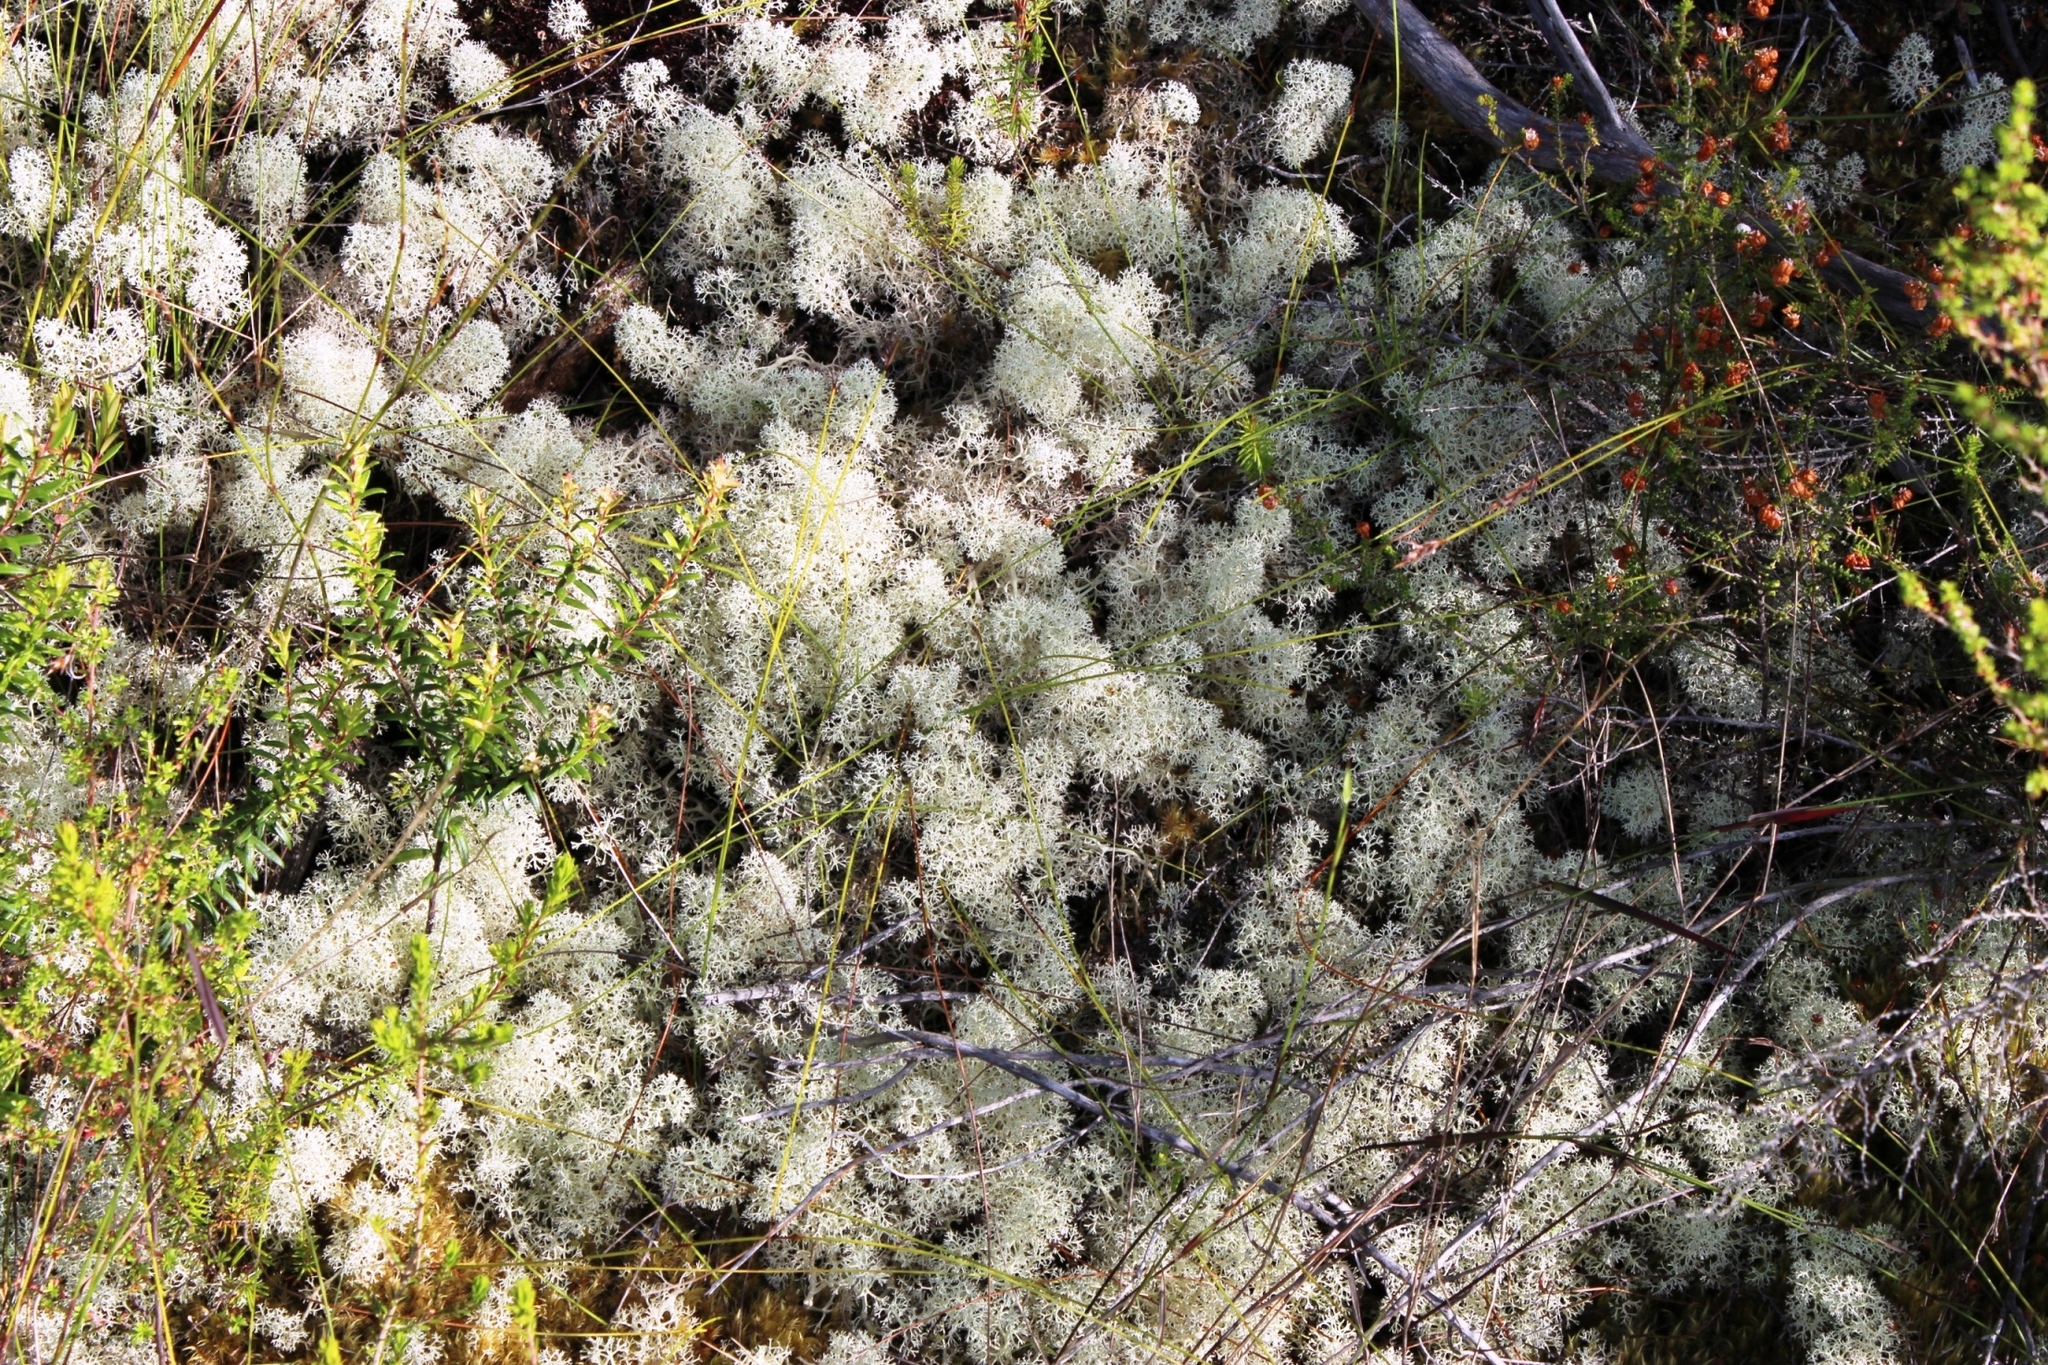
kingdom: Fungi
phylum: Ascomycota
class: Lecanoromycetes
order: Lecanorales
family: Cladoniaceae
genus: Cladonia
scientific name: Cladonia confusa
